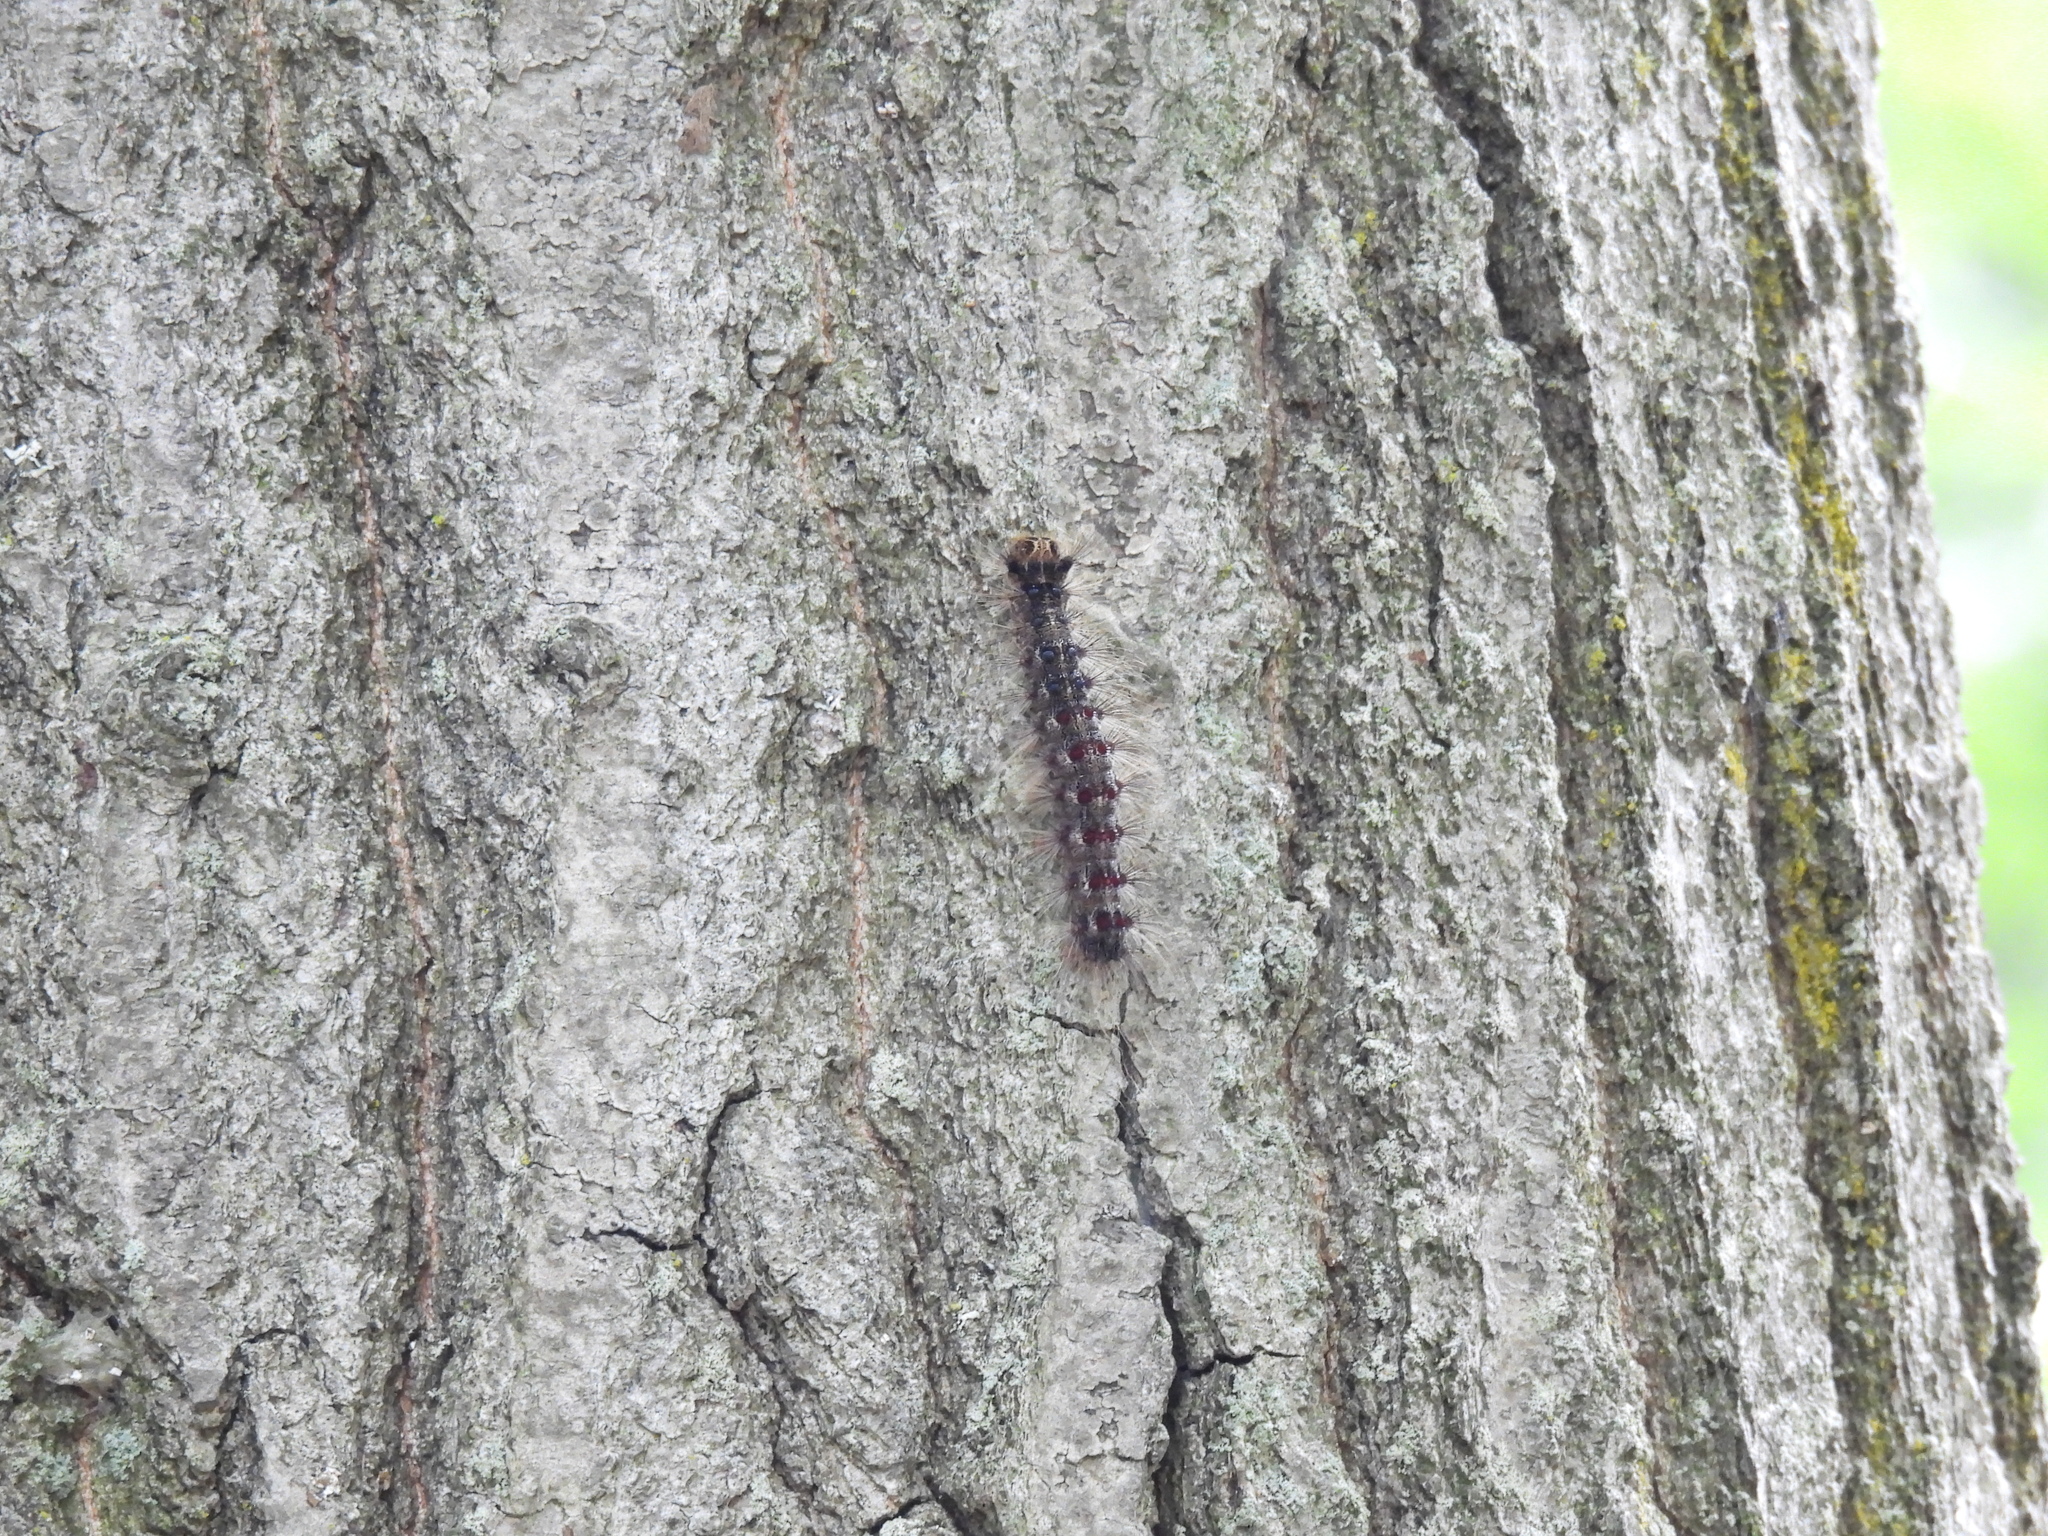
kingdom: Animalia
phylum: Arthropoda
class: Insecta
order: Lepidoptera
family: Erebidae
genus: Lymantria
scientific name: Lymantria dispar
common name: Gypsy moth
